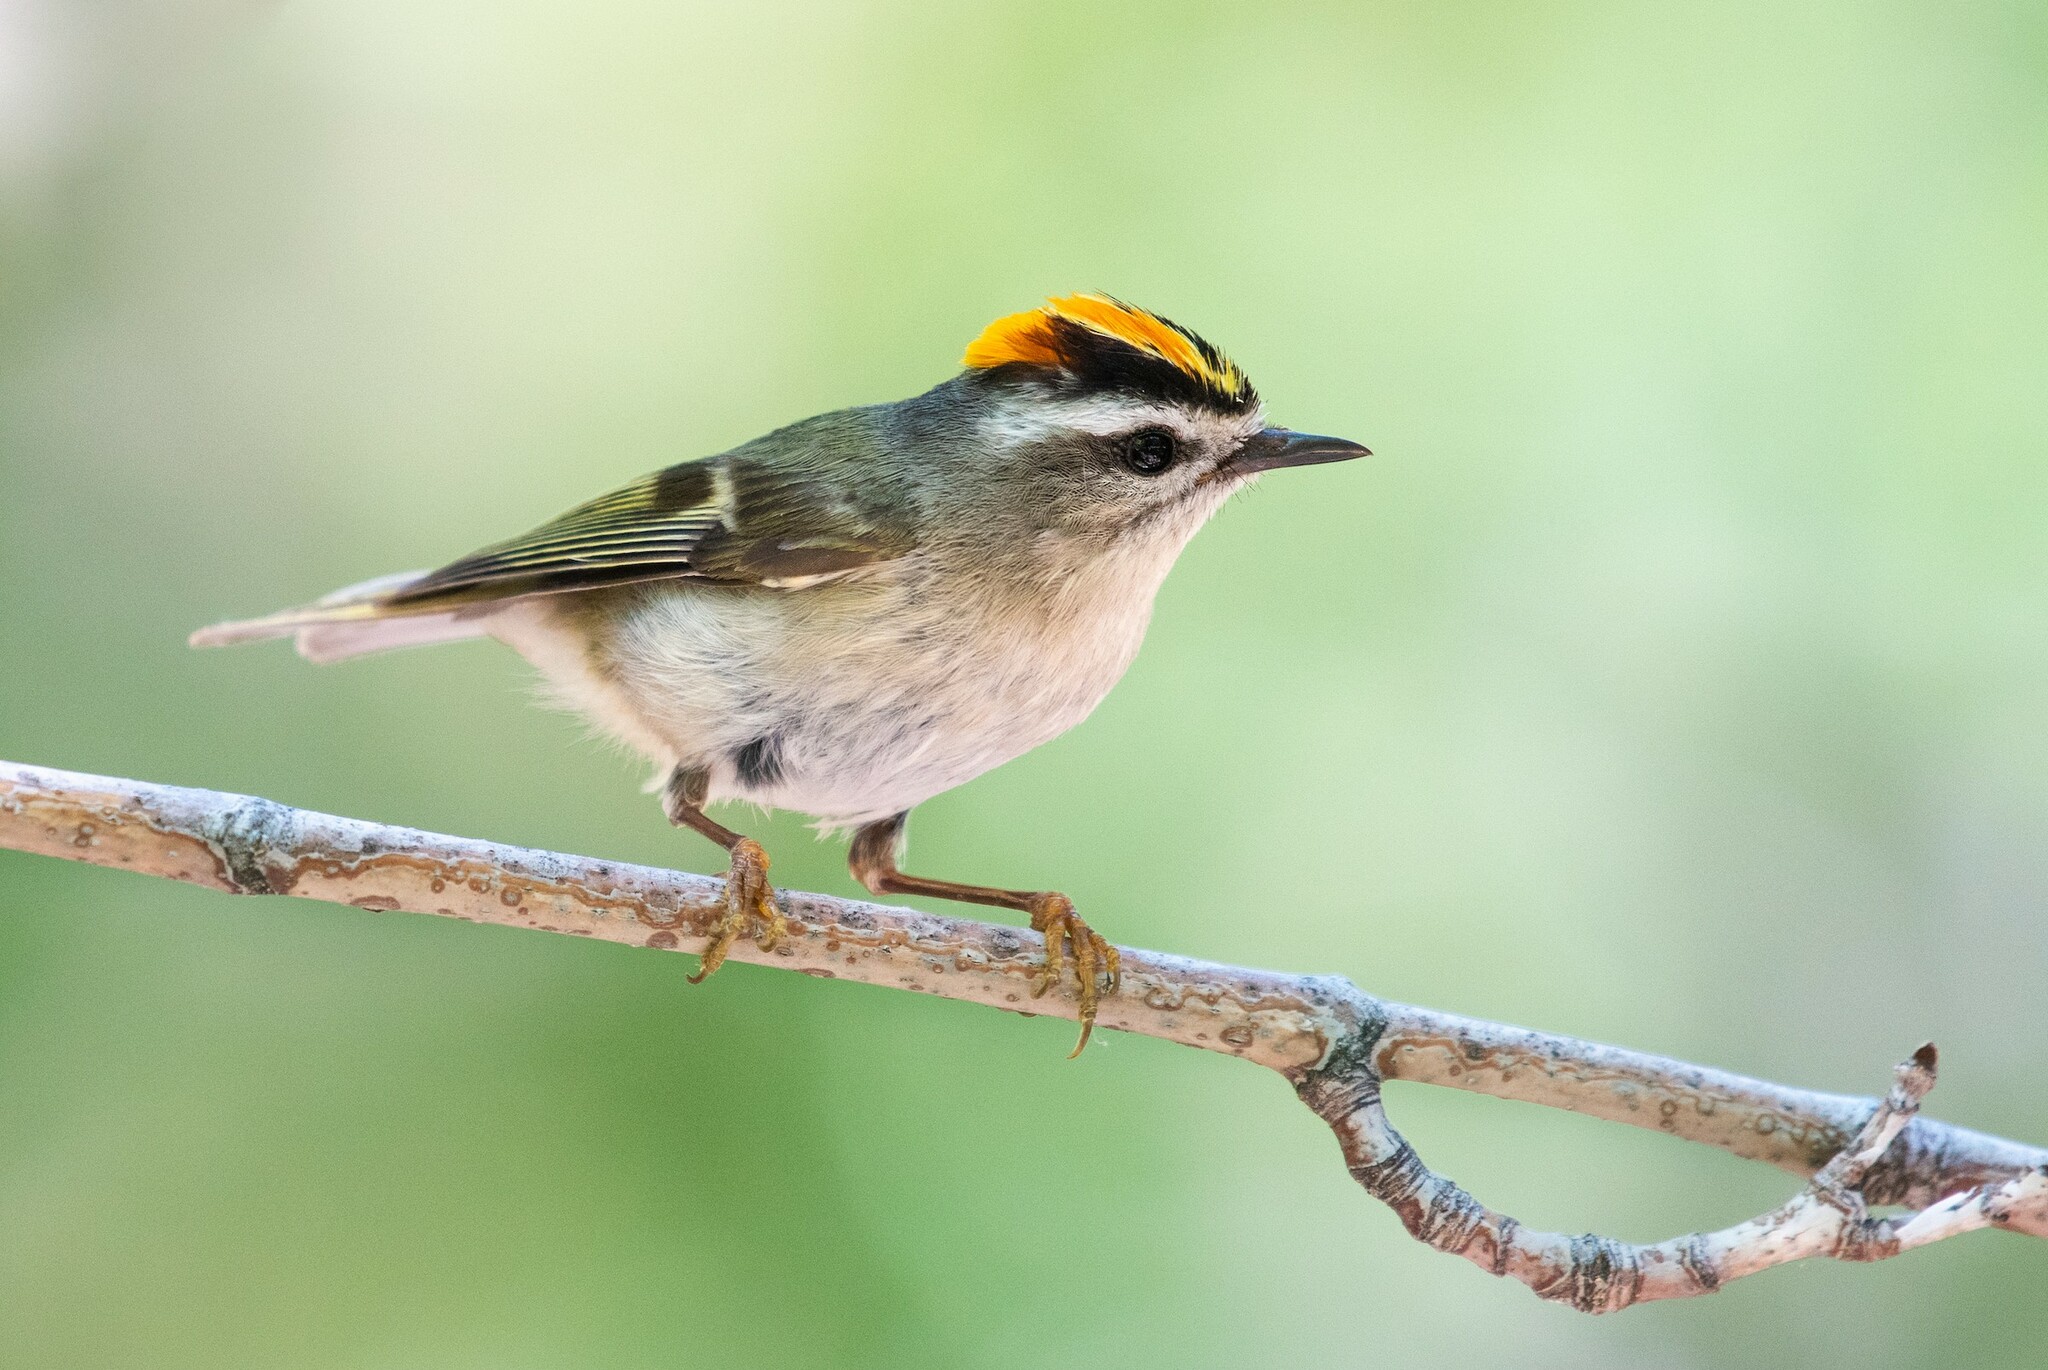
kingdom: Animalia
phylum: Chordata
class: Aves
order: Passeriformes
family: Regulidae
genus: Regulus
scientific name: Regulus satrapa
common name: Golden-crowned kinglet
